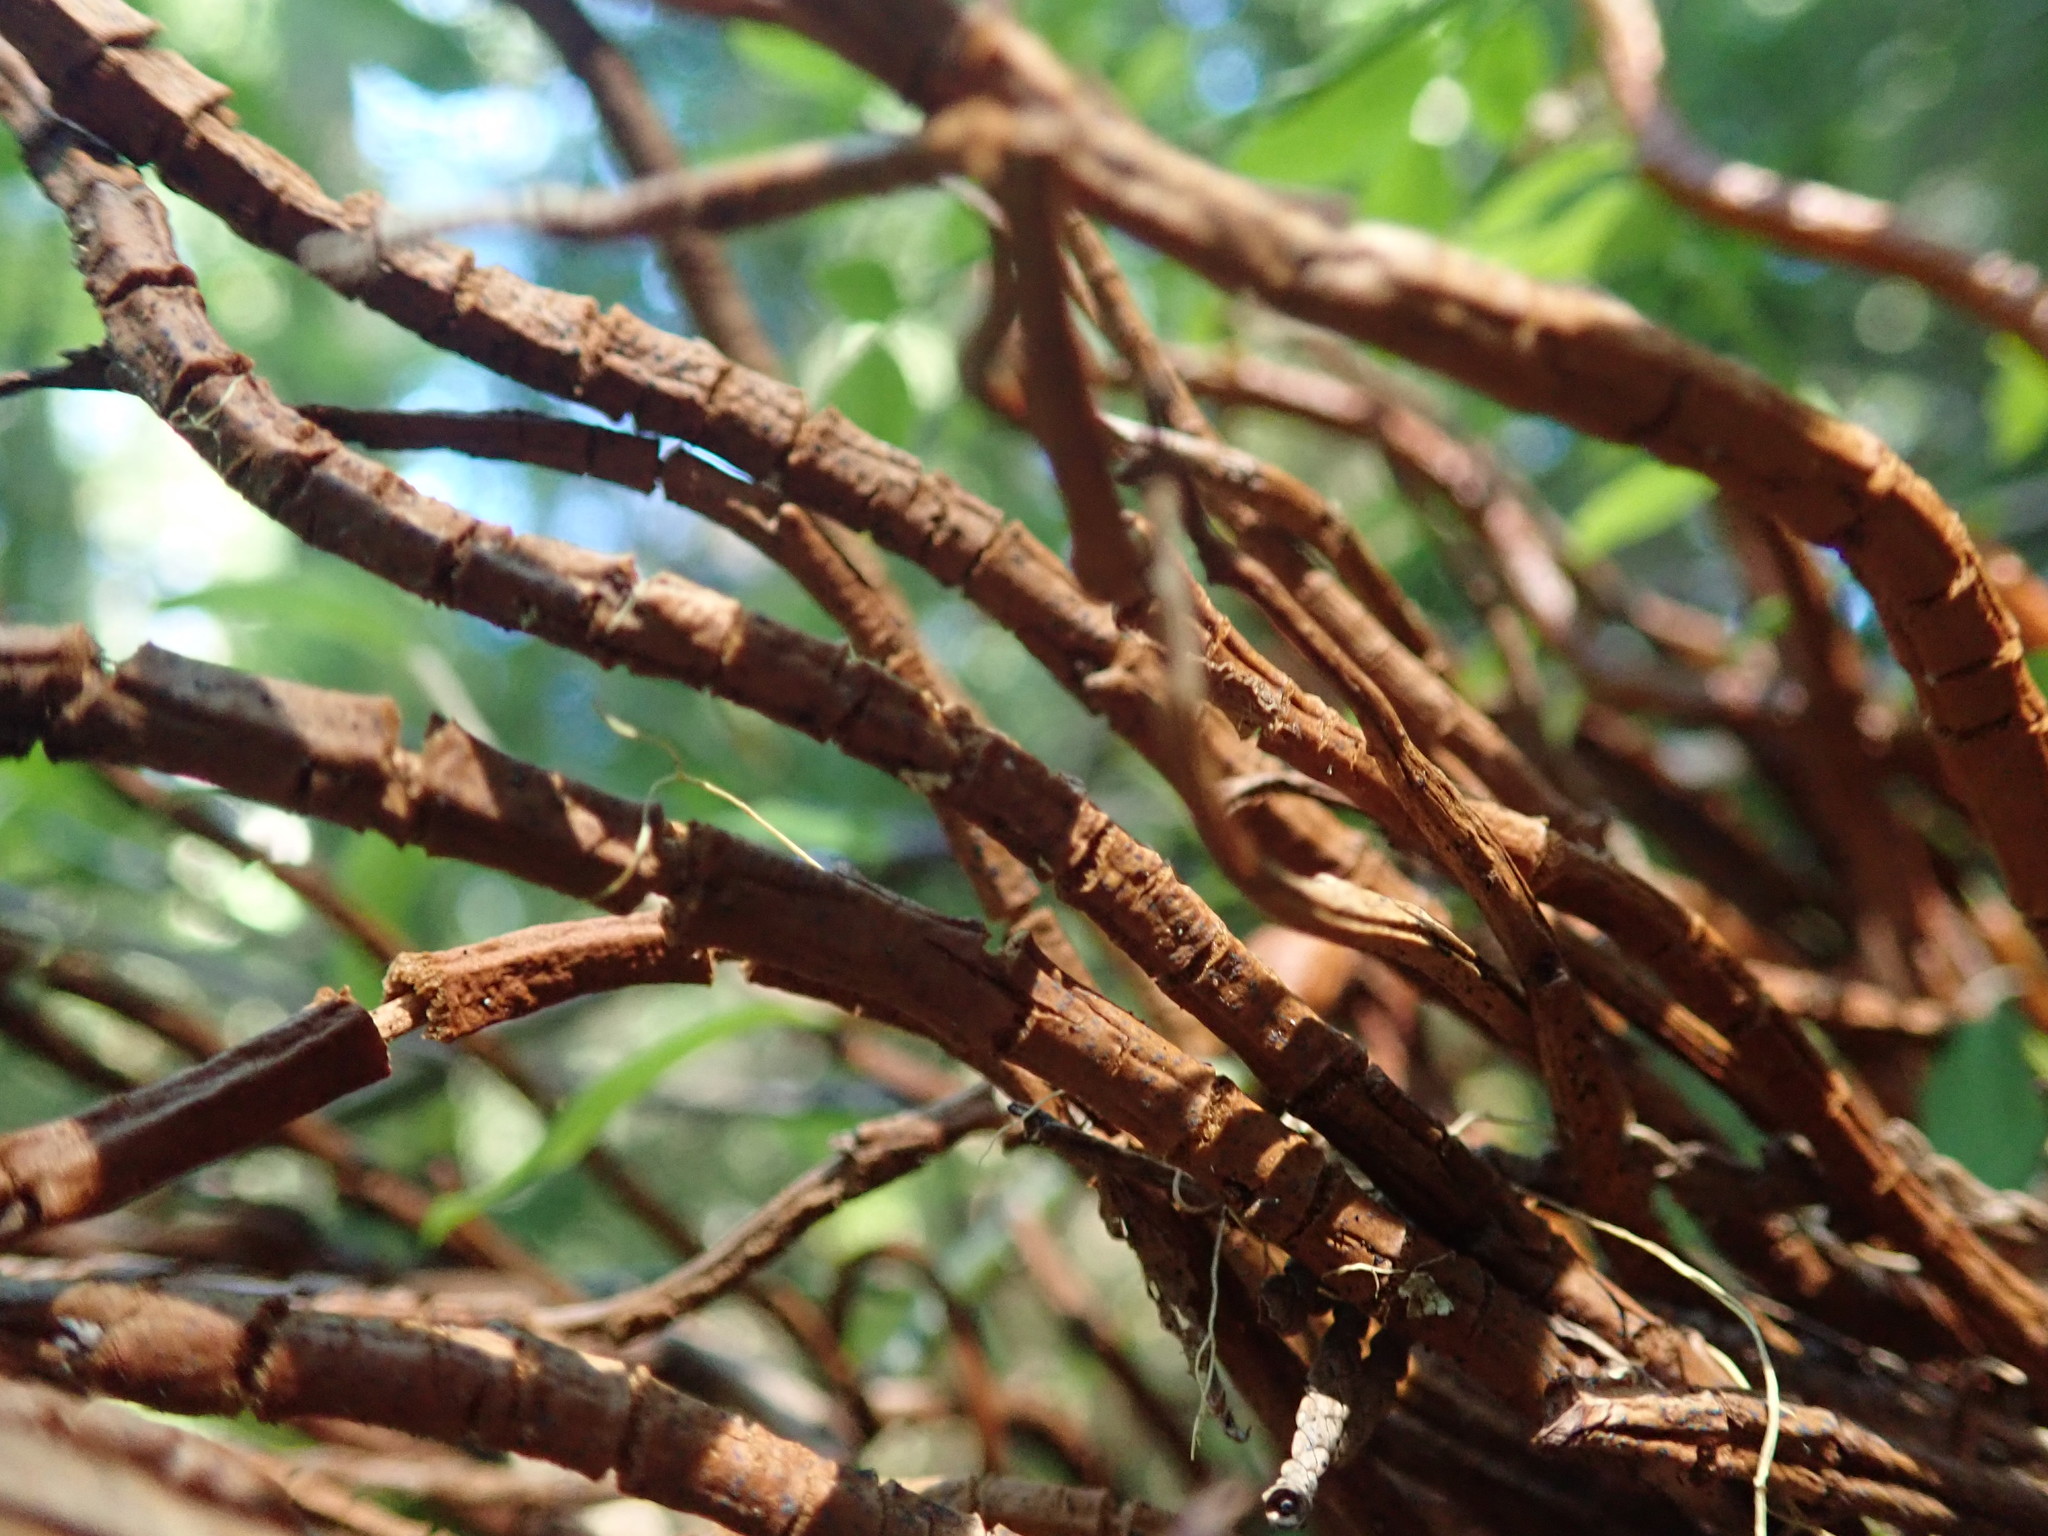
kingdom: Fungi
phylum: Basidiomycota
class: Pucciniomycetes
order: Pucciniales
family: Pucciniastraceae
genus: Calyptospora
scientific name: Calyptospora
